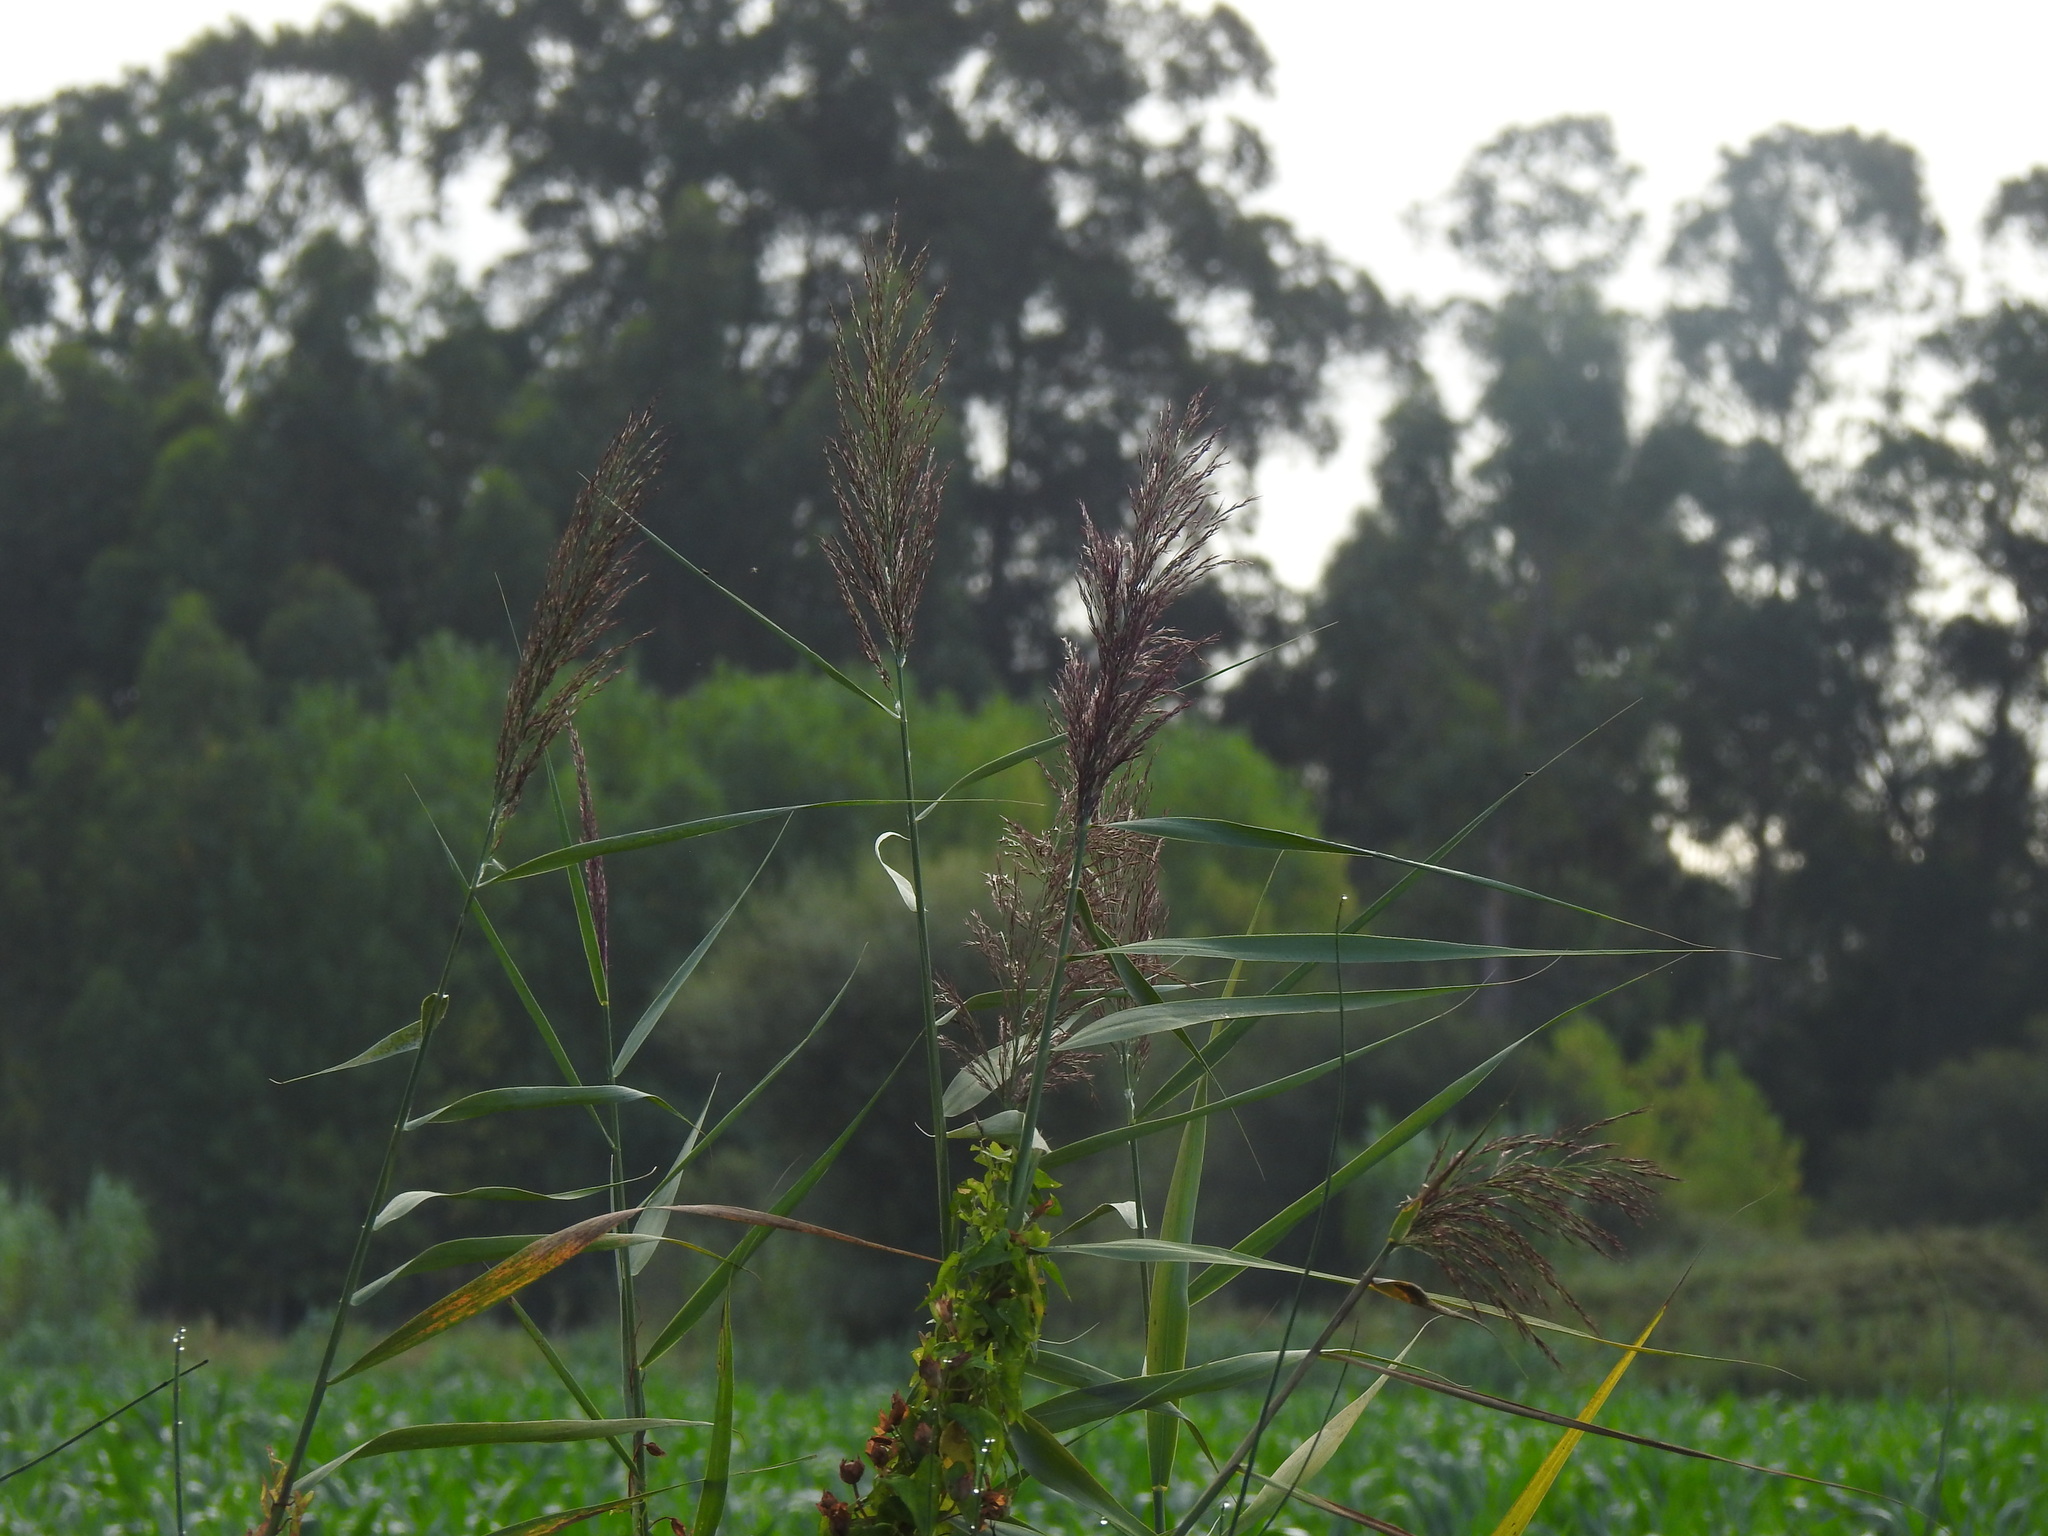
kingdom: Plantae
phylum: Tracheophyta
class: Liliopsida
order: Poales
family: Poaceae
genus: Phragmites
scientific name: Phragmites australis
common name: Common reed
